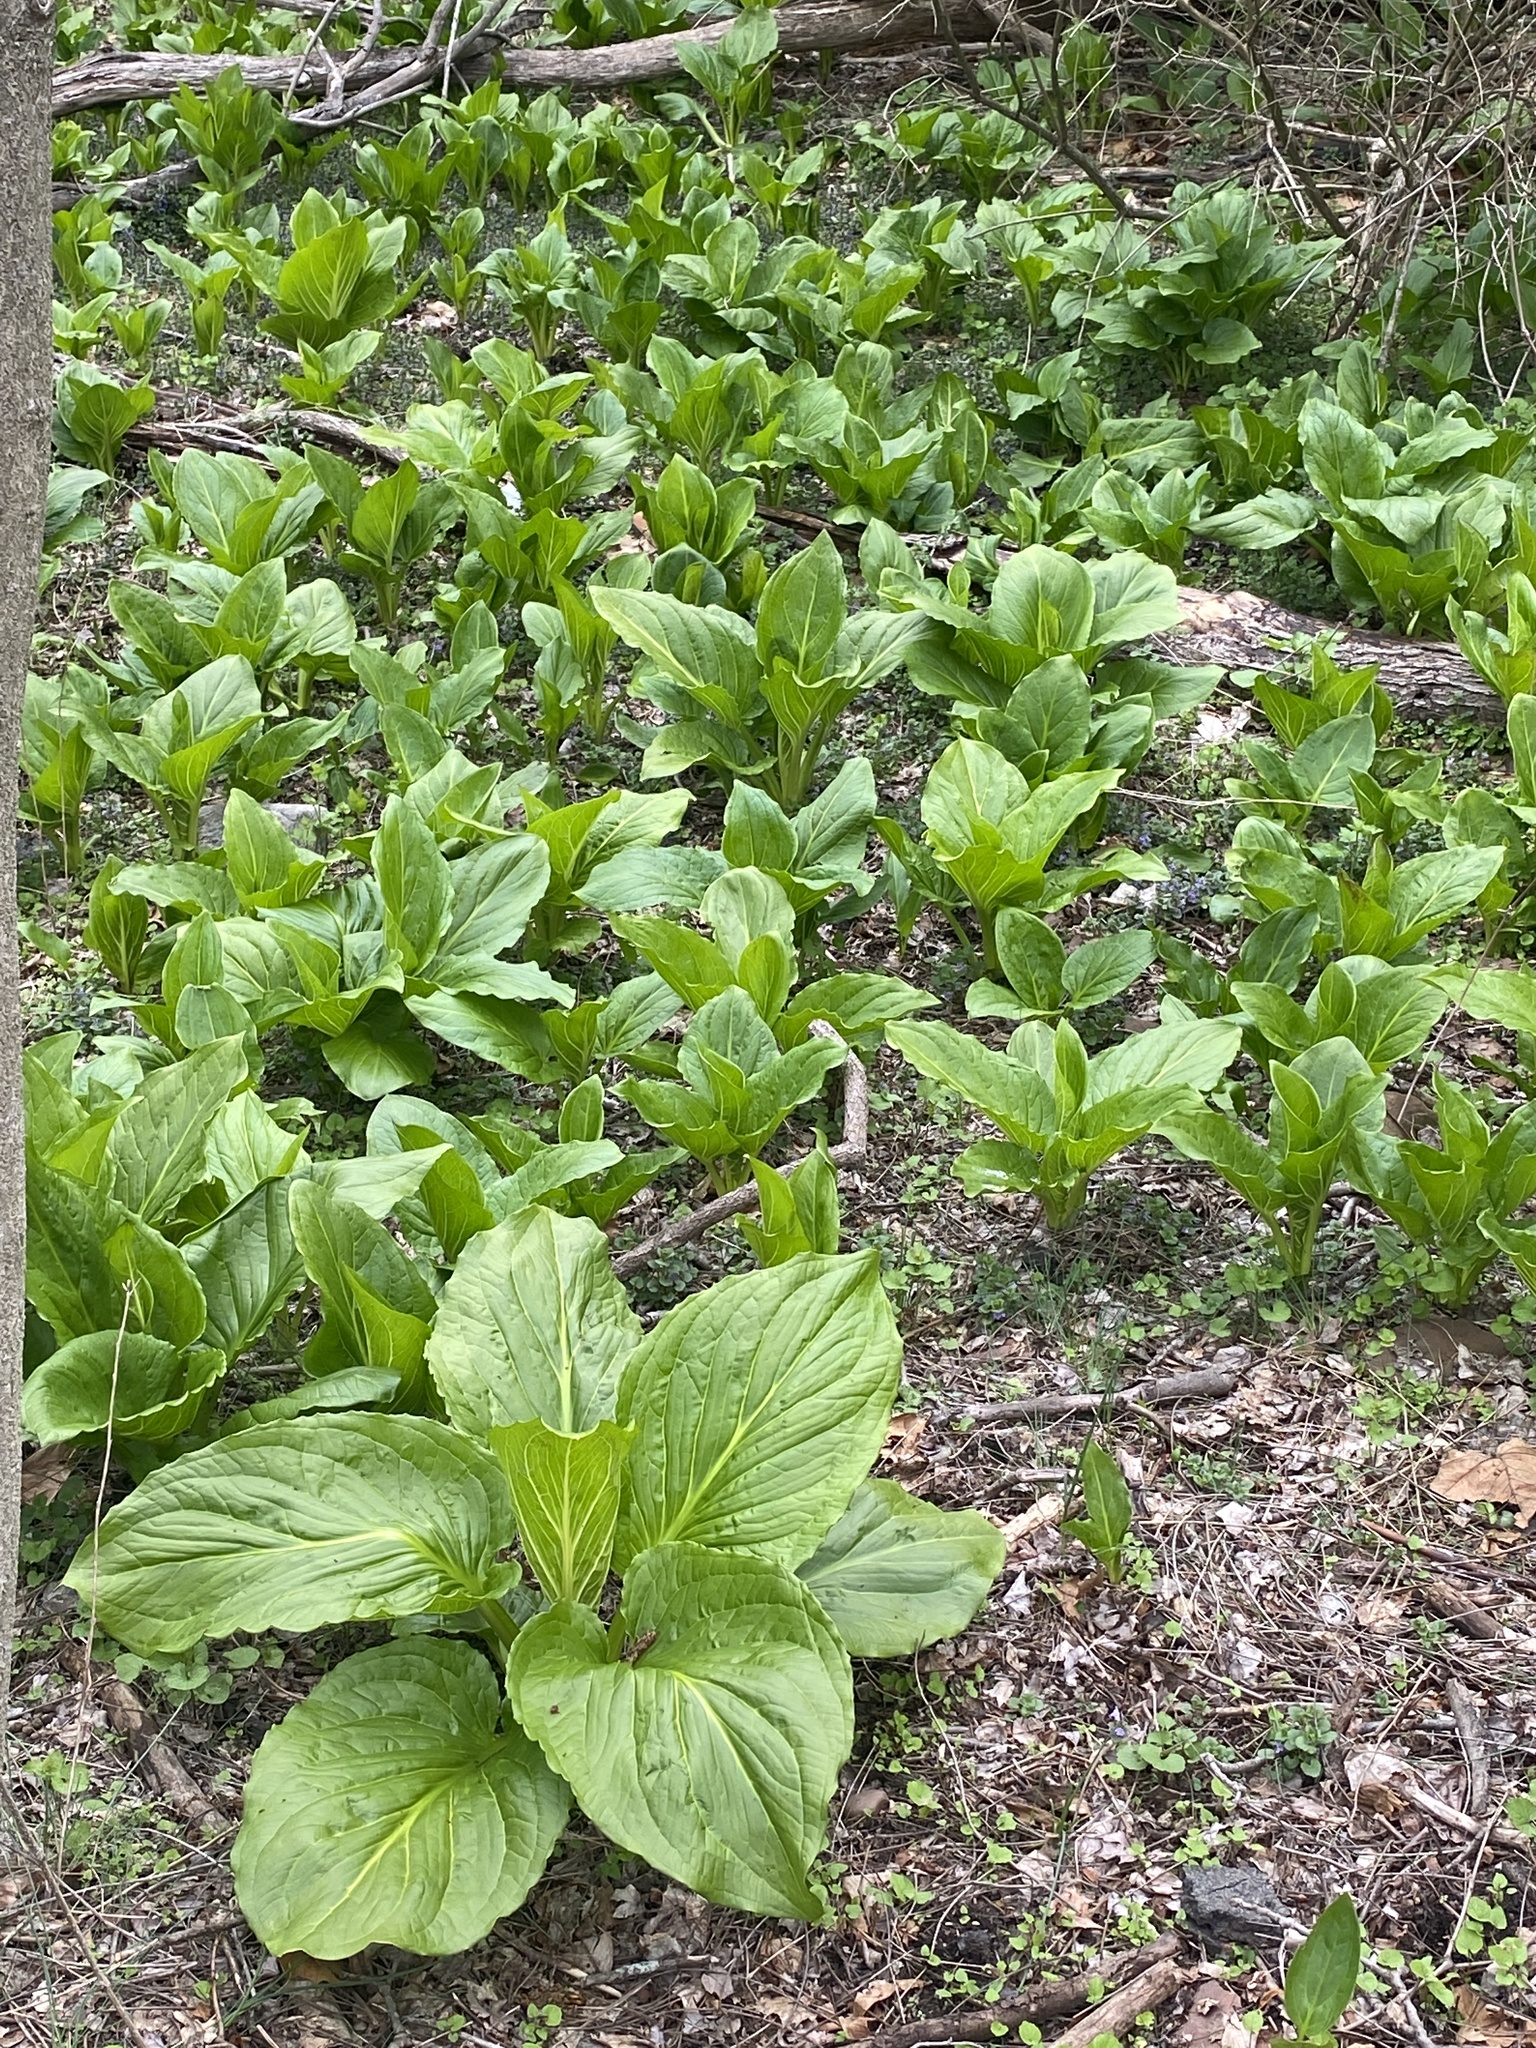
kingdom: Plantae
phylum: Tracheophyta
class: Liliopsida
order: Alismatales
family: Araceae
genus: Symplocarpus
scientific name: Symplocarpus foetidus
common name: Eastern skunk cabbage
